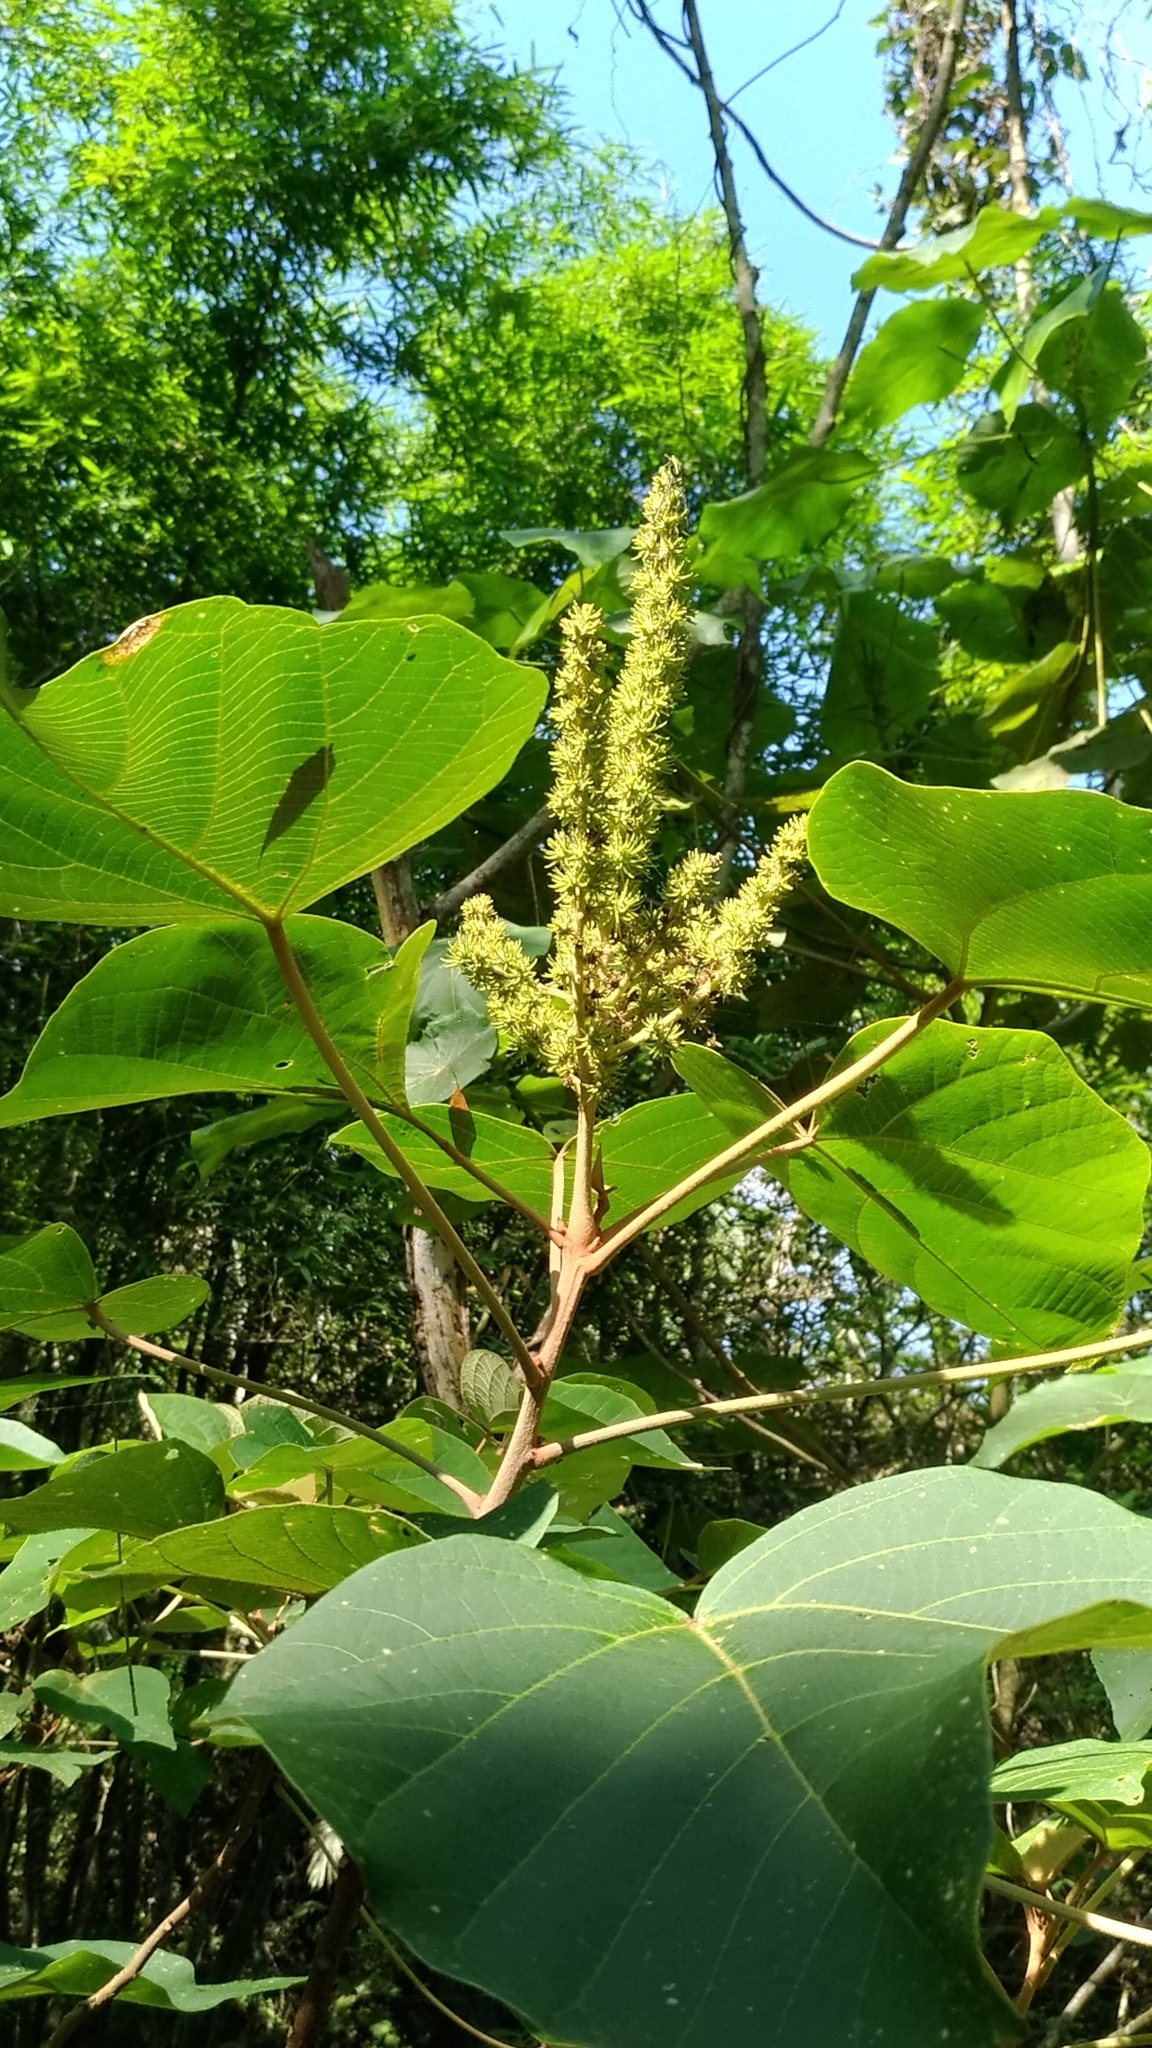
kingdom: Plantae
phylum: Tracheophyta
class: Magnoliopsida
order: Malpighiales
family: Euphorbiaceae
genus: Mallotus
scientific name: Mallotus japonicus
